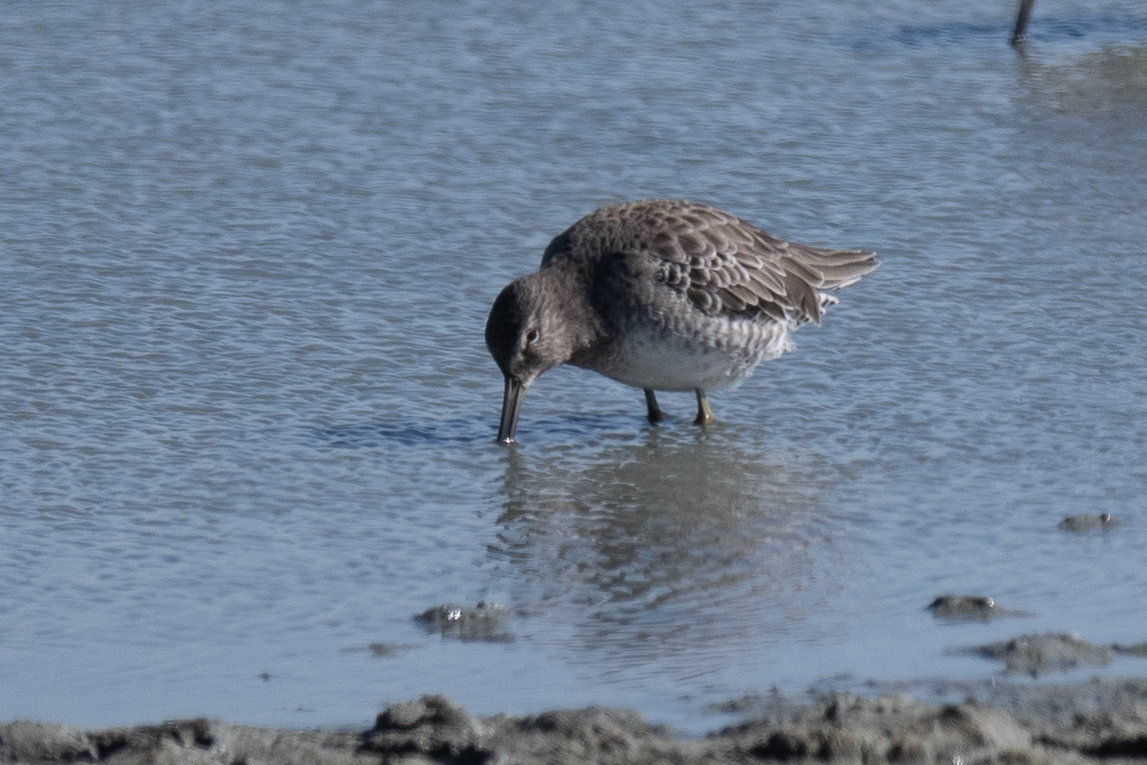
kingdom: Animalia
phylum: Chordata
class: Aves
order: Charadriiformes
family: Scolopacidae
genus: Limnodromus
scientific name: Limnodromus scolopaceus
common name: Long-billed dowitcher
